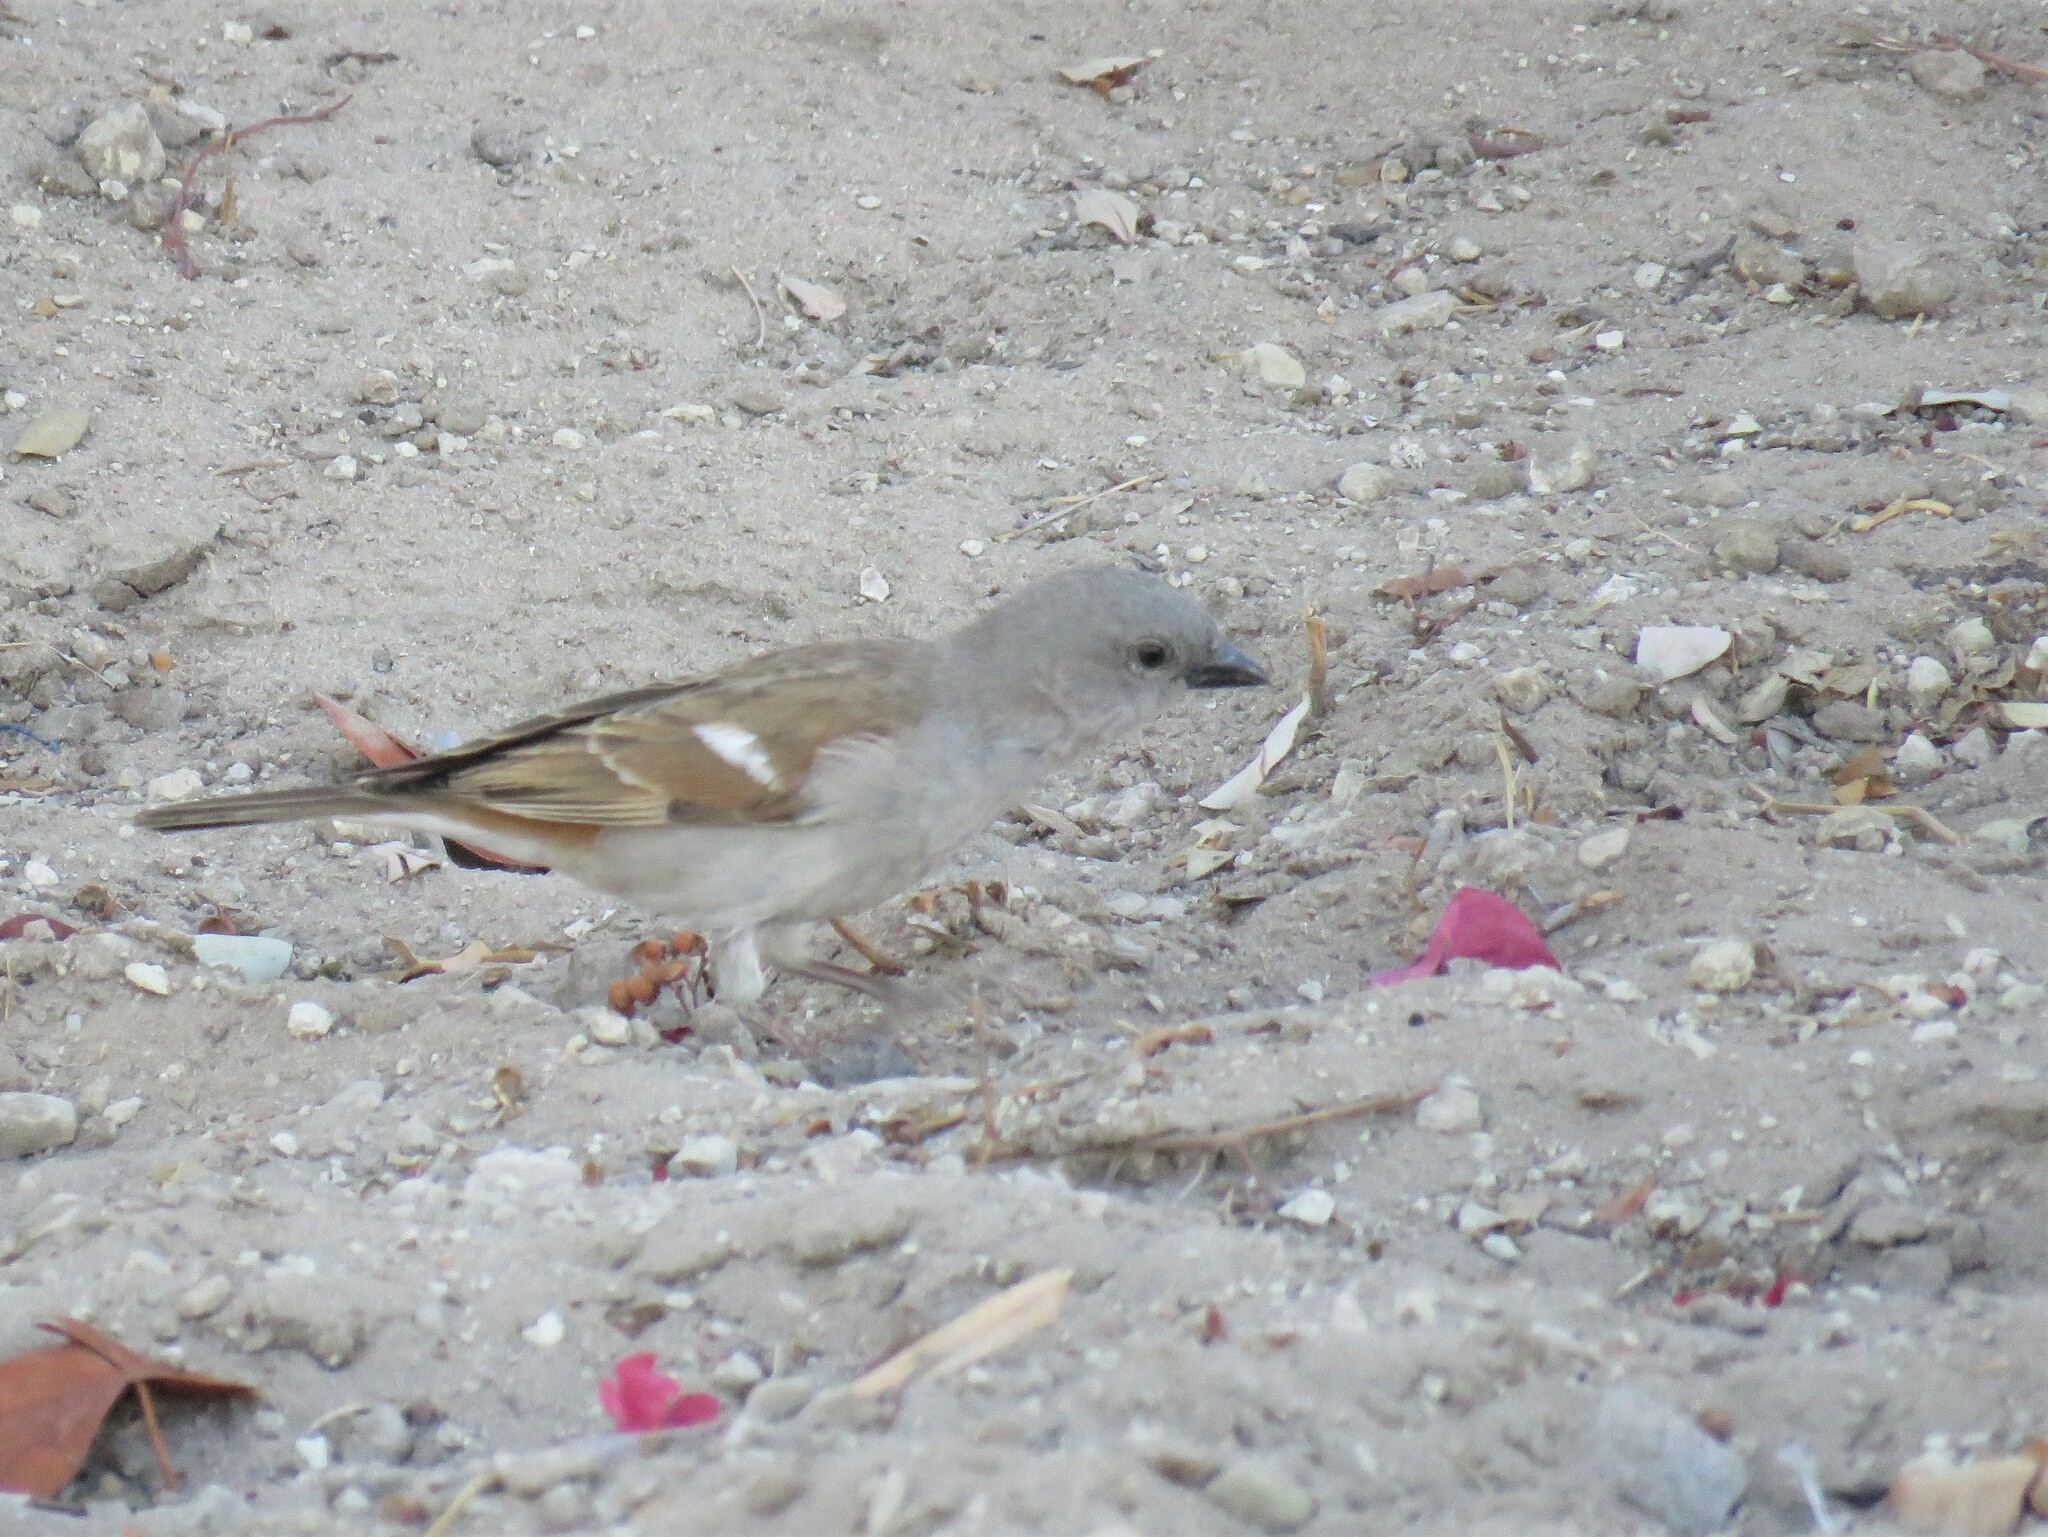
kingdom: Animalia
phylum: Chordata
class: Aves
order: Passeriformes
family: Passeridae
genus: Passer
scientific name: Passer diffusus
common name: Southern grey-headed sparrow
